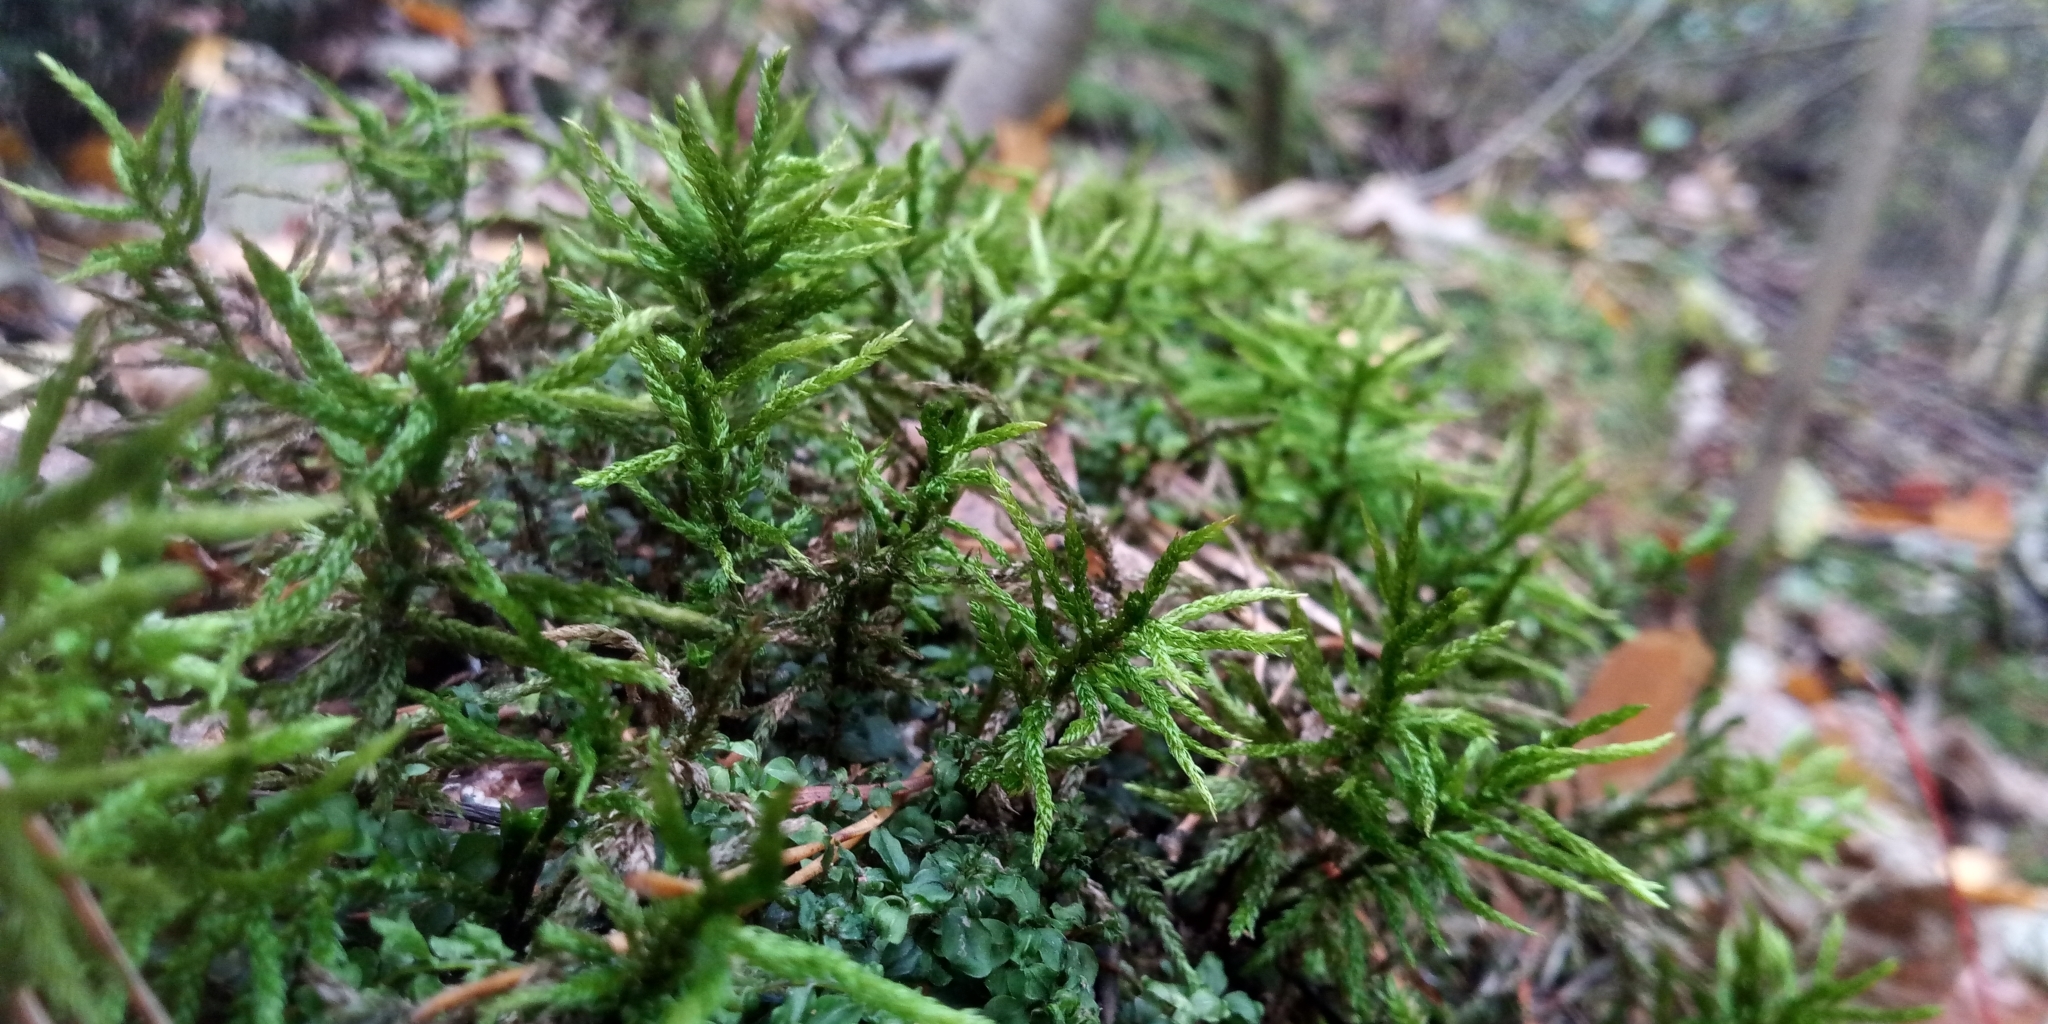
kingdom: Plantae
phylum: Bryophyta
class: Bryopsida
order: Hypnales
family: Climaciaceae
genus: Climacium
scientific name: Climacium dendroides
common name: Northern tree moss
